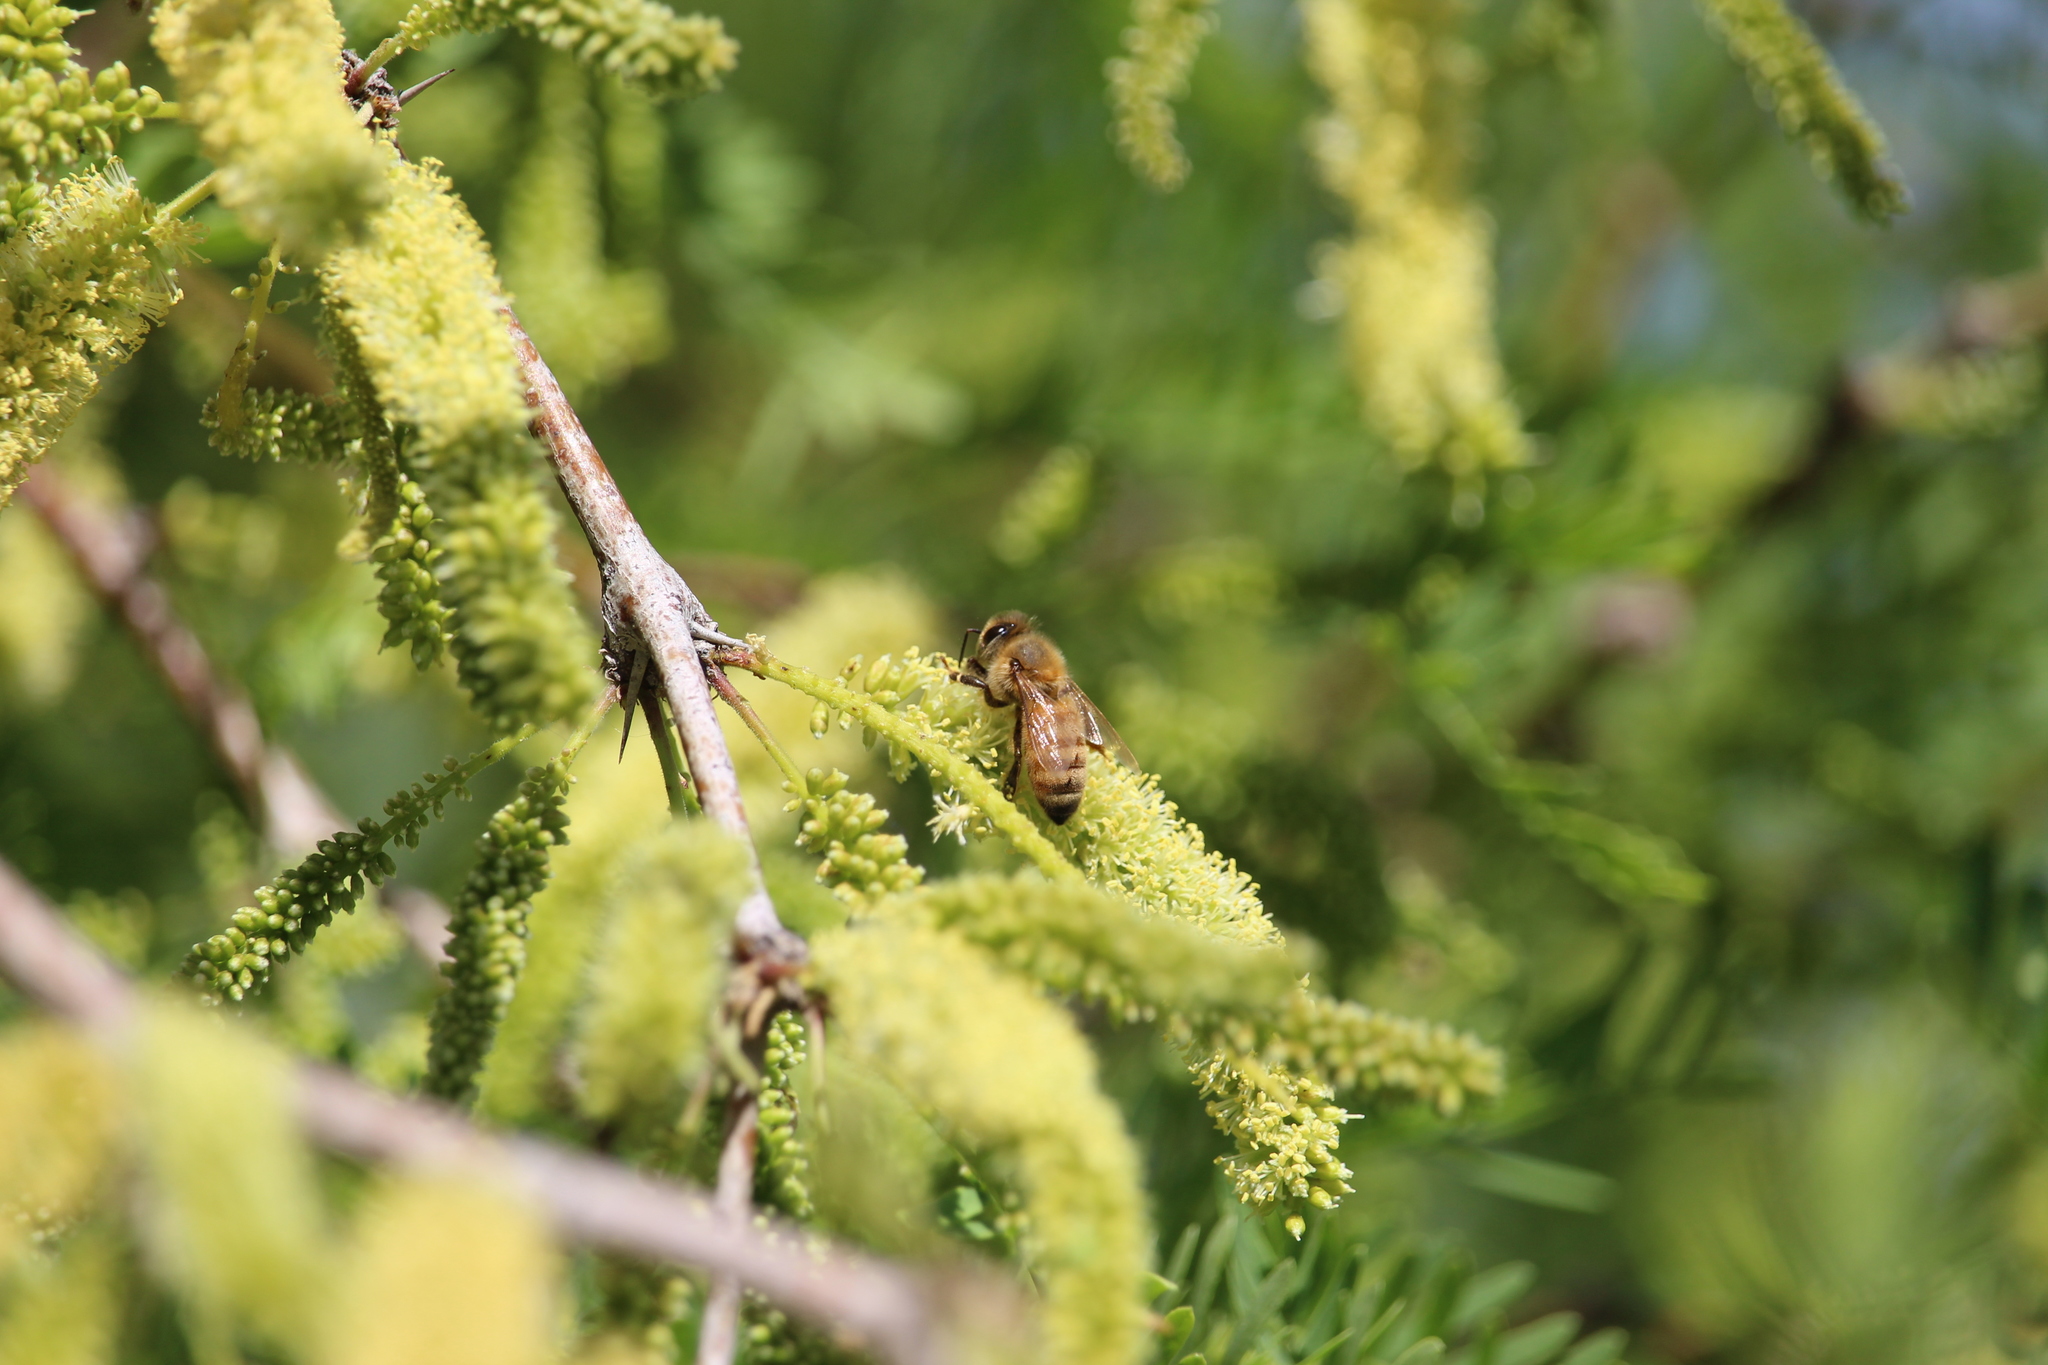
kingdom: Animalia
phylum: Arthropoda
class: Insecta
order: Hymenoptera
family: Apidae
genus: Apis
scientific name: Apis mellifera
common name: Honey bee
